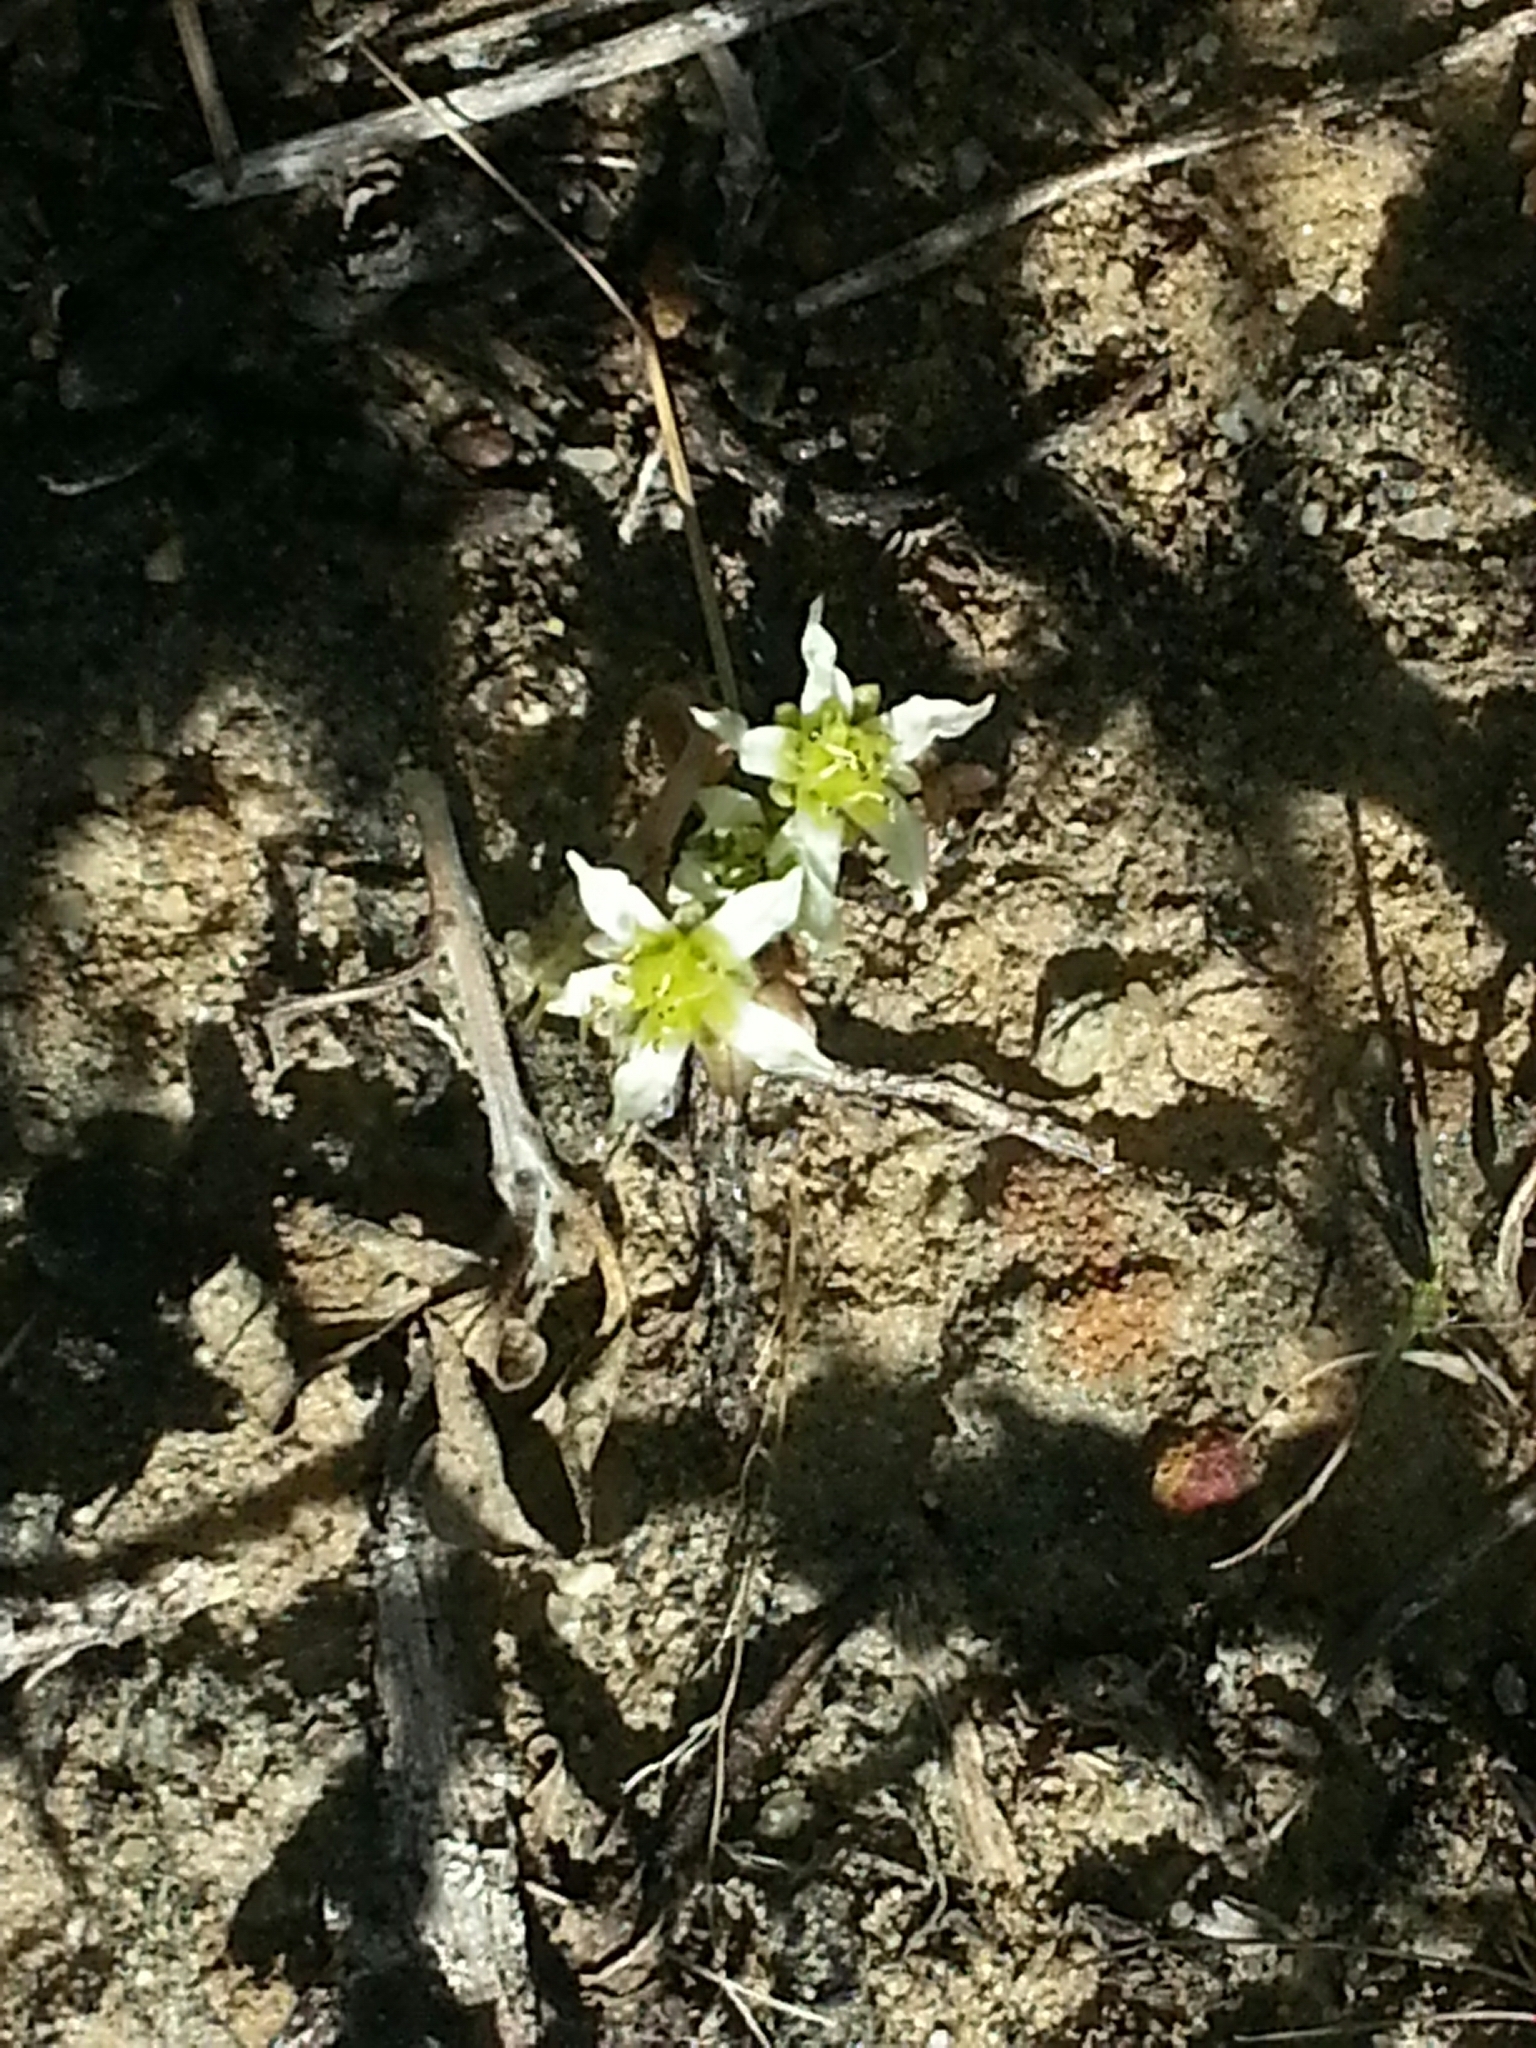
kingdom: Plantae
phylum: Tracheophyta
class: Magnoliopsida
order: Saxifragales
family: Crassulaceae
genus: Dudleya
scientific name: Dudleya edulis
